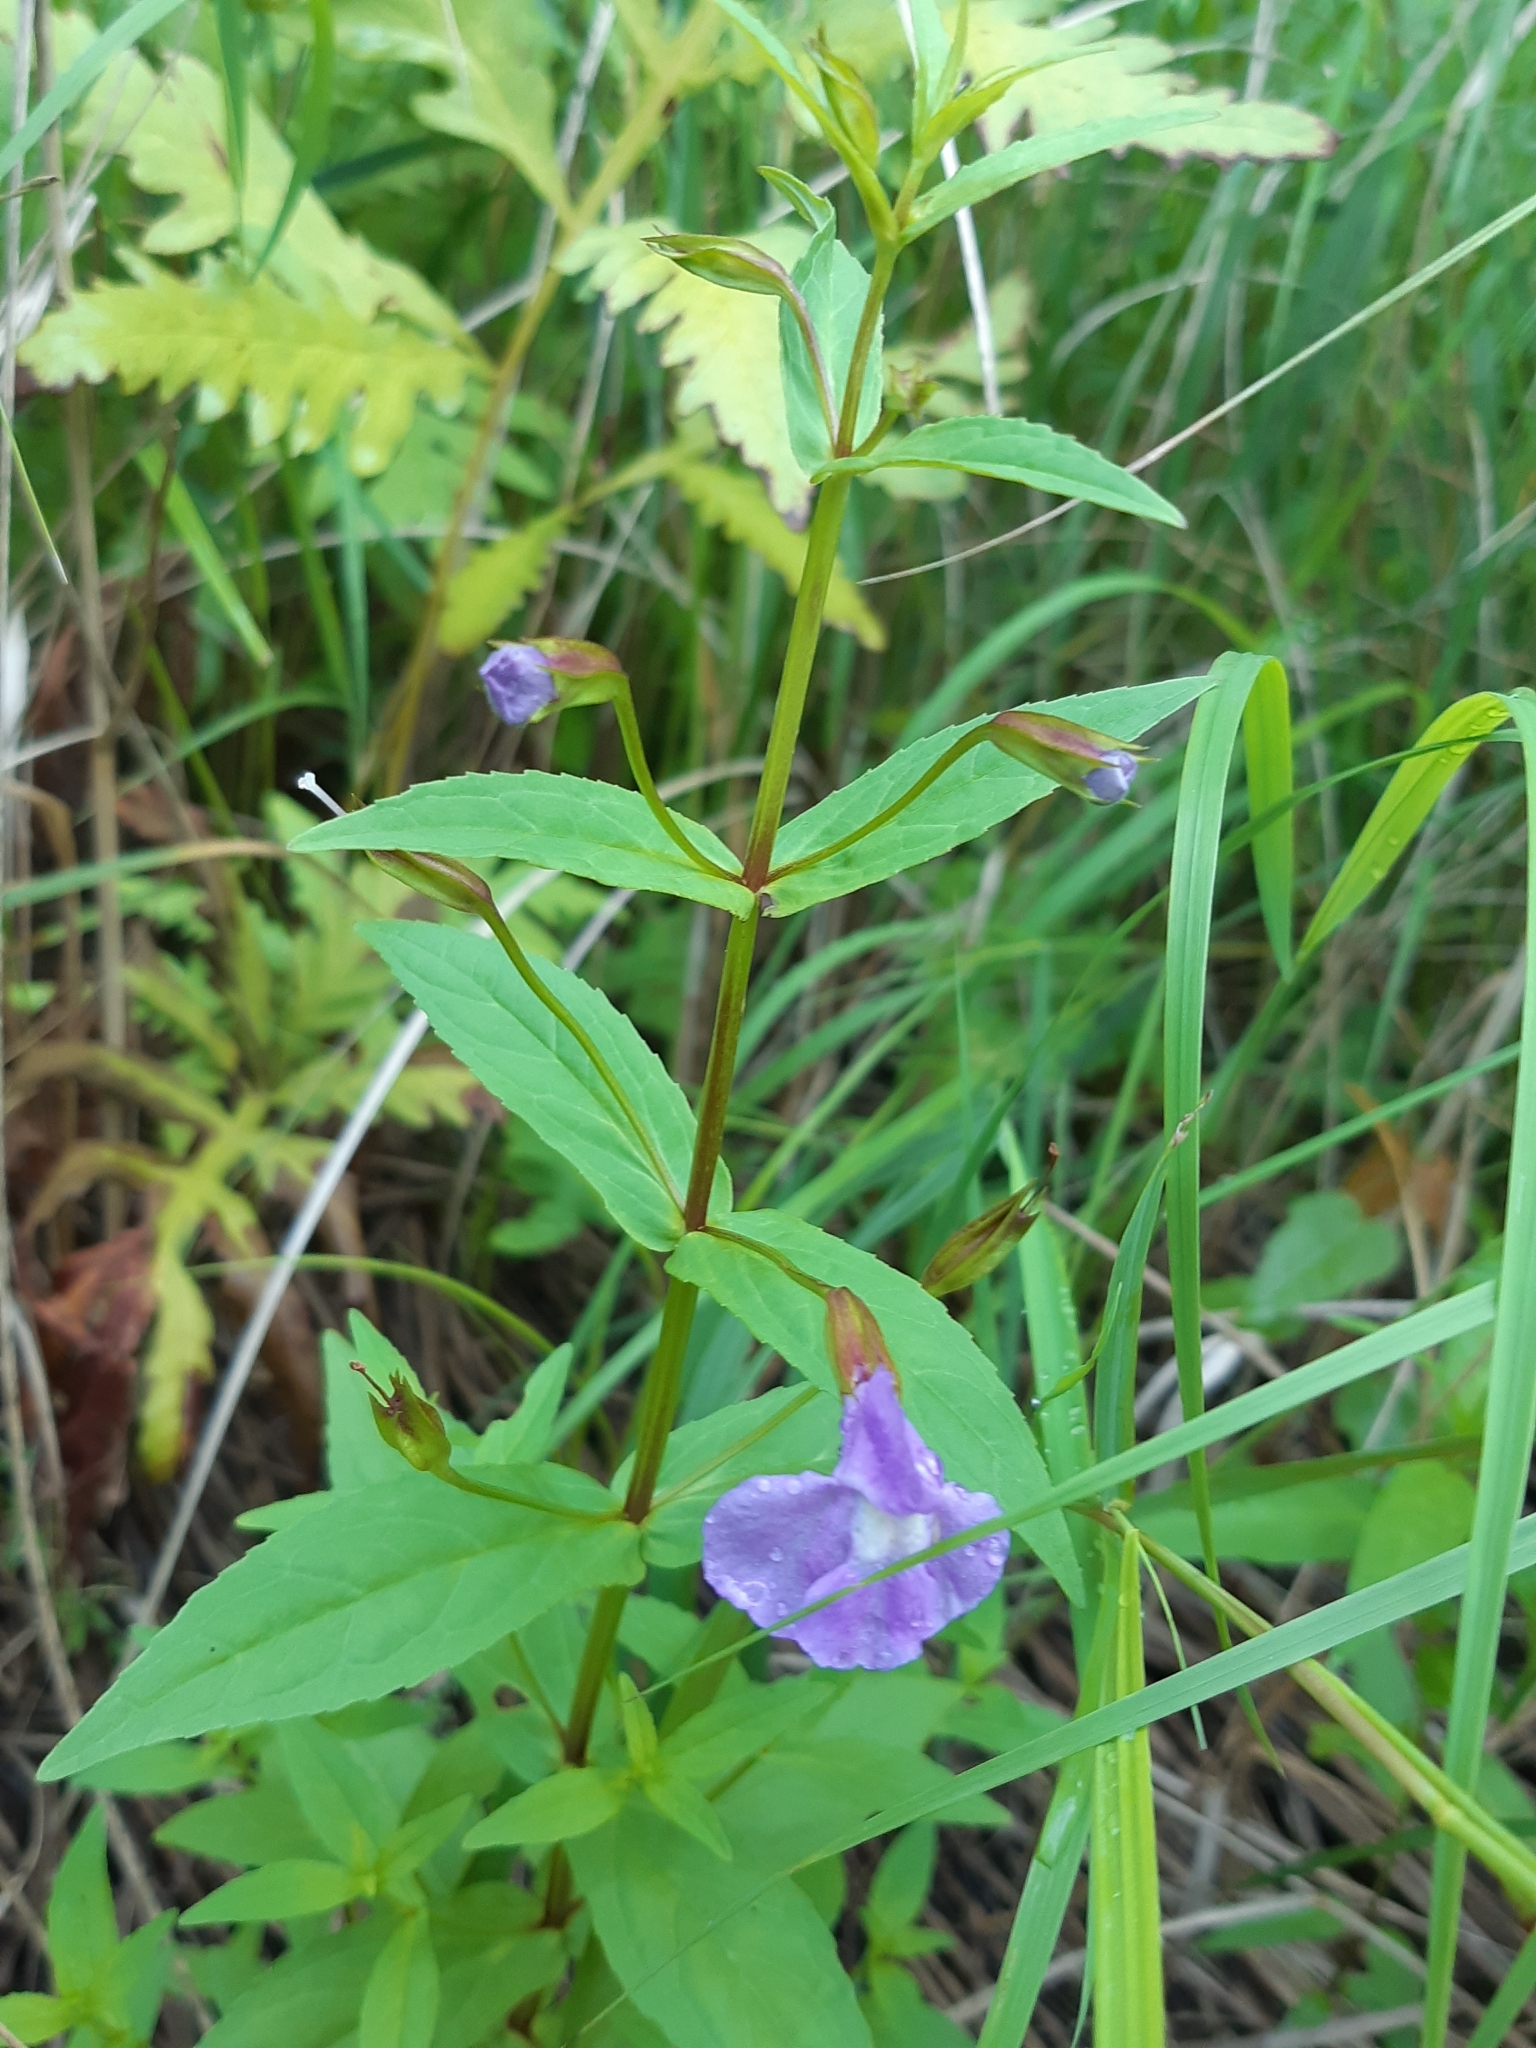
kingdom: Plantae
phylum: Tracheophyta
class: Magnoliopsida
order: Lamiales
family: Phrymaceae
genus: Mimulus
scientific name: Mimulus ringens
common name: Allegheny monkeyflower
